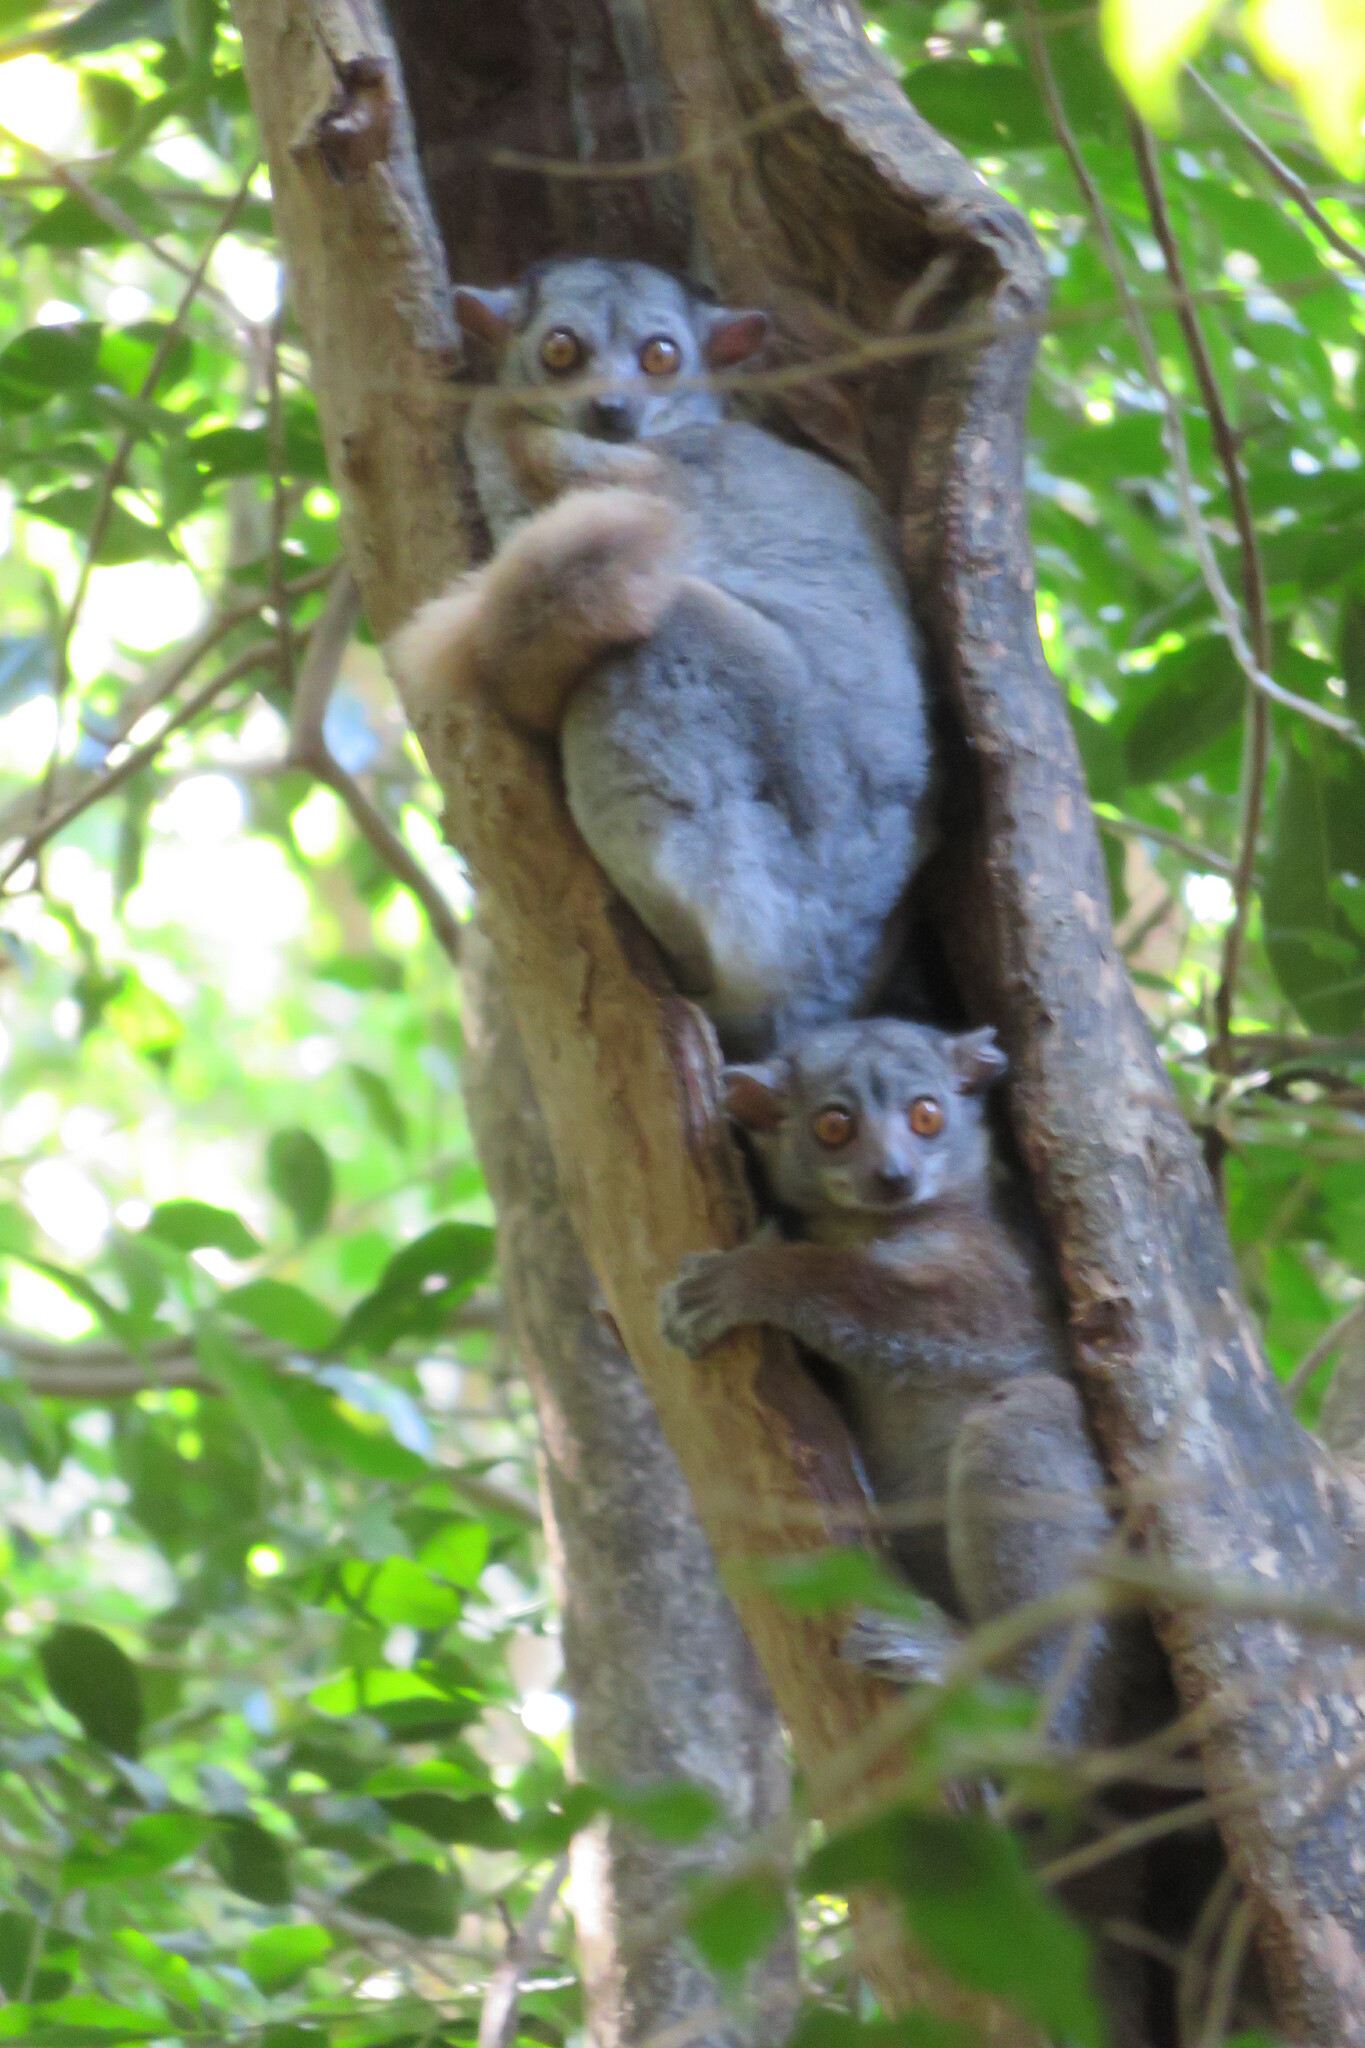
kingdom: Animalia
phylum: Chordata
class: Mammalia
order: Primates
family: Lepilemuridae
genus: Lepilemur
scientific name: Lepilemur randrianasoloi
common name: Bemaraha sportive lemur
